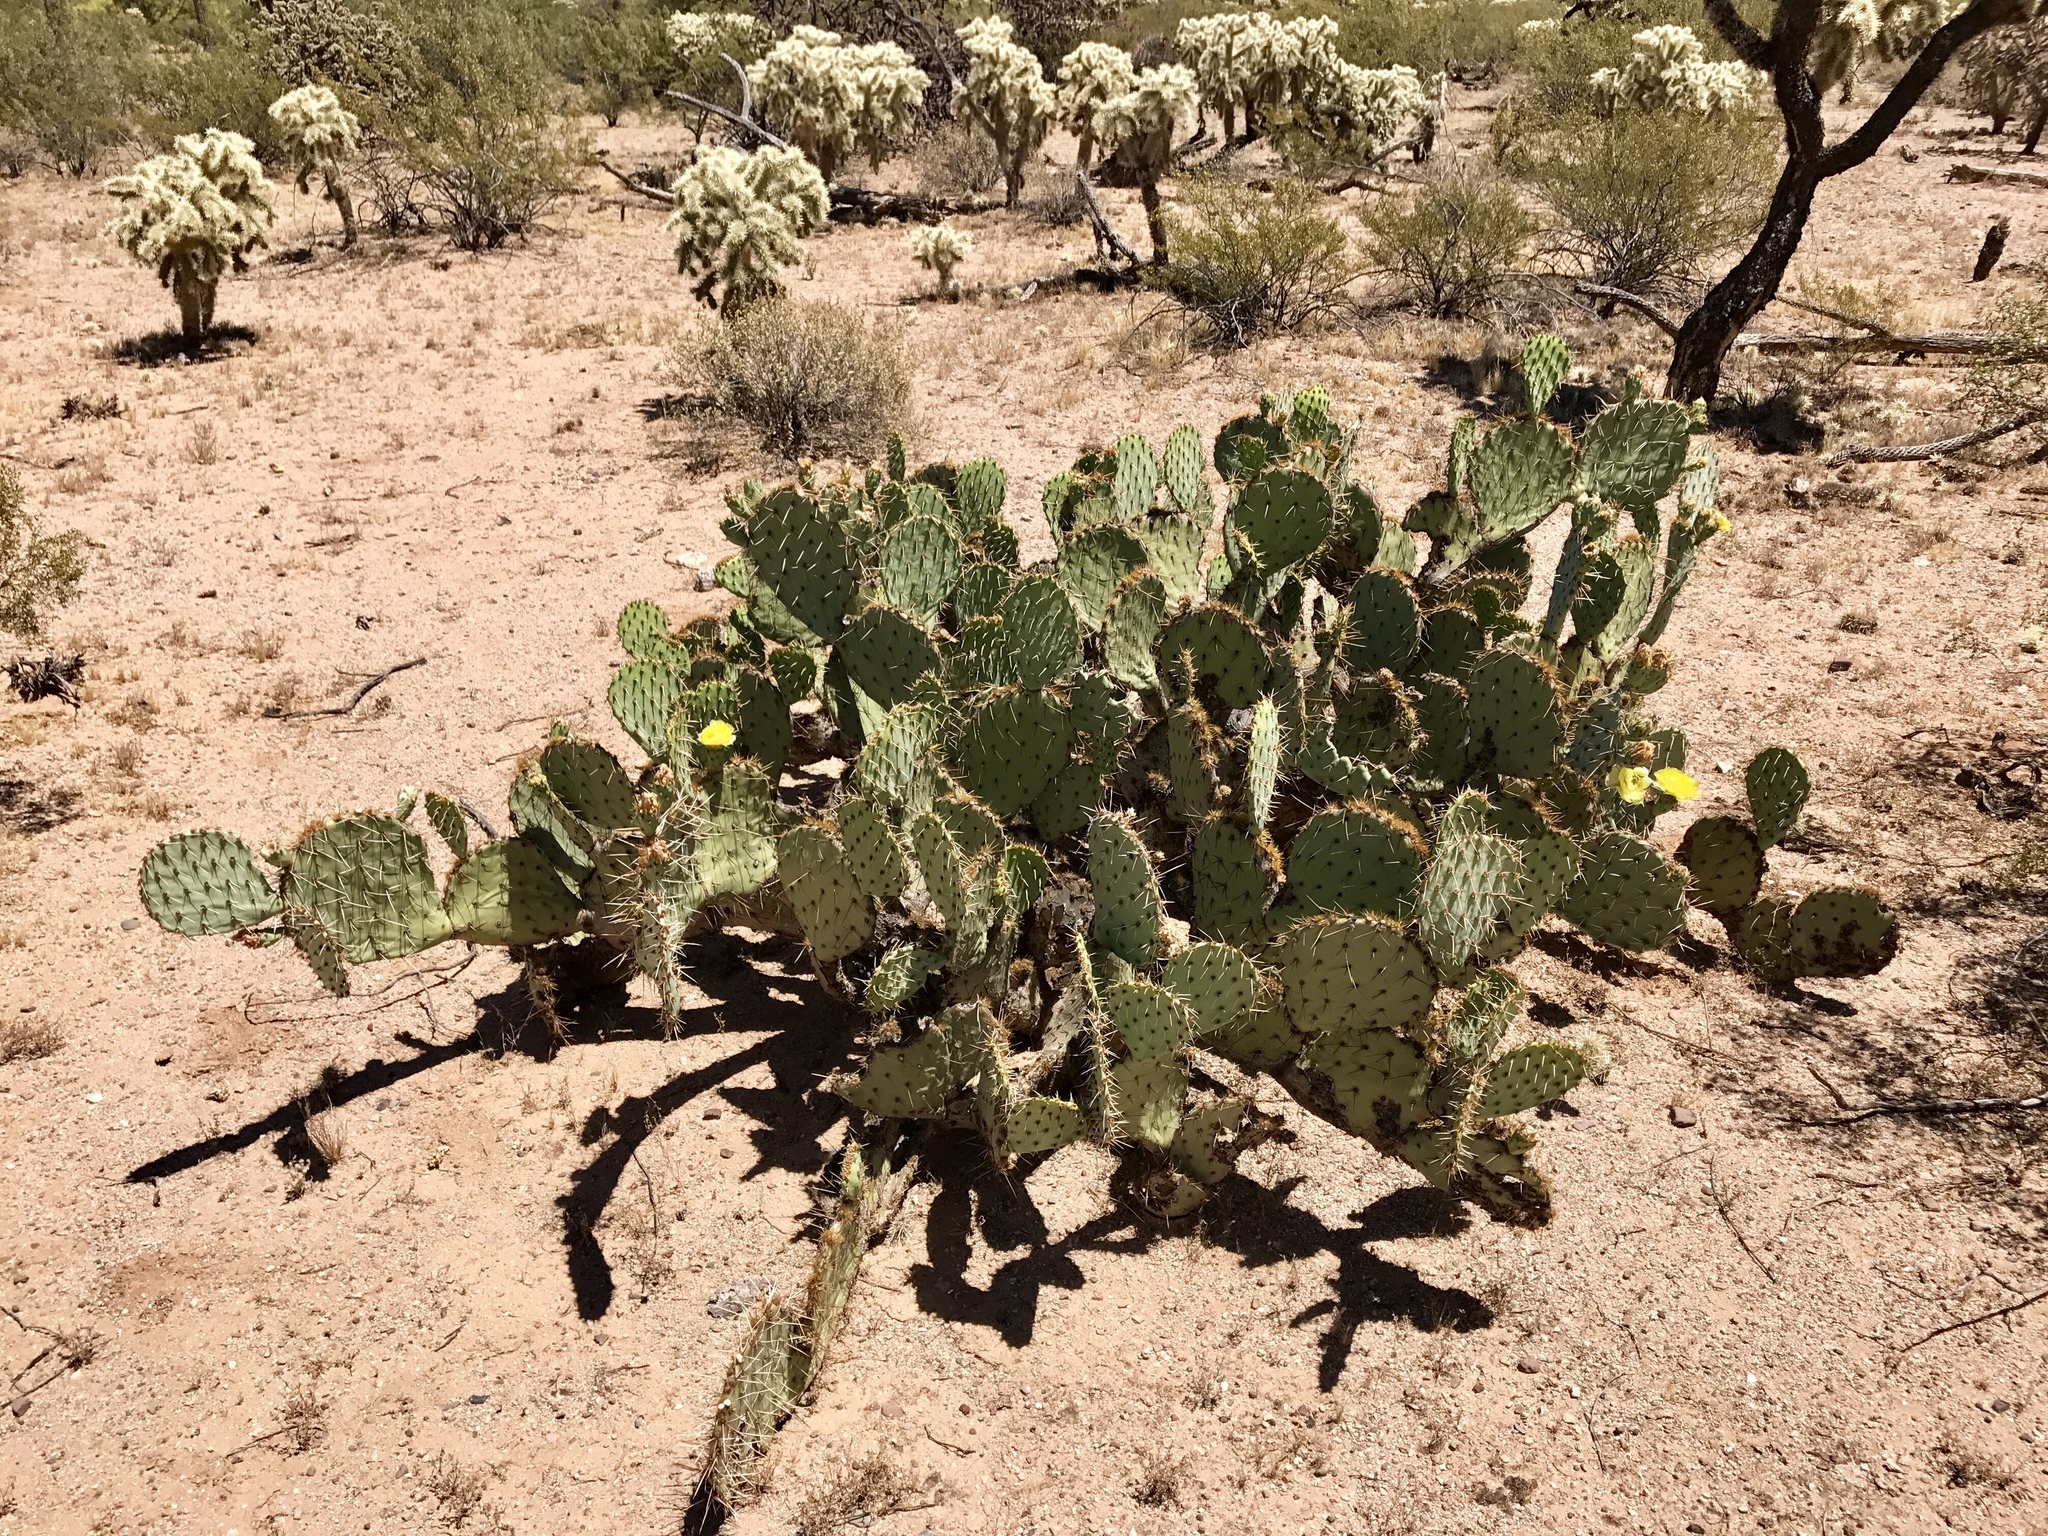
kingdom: Plantae
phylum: Tracheophyta
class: Magnoliopsida
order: Caryophyllales
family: Cactaceae
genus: Opuntia
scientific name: Opuntia engelmannii
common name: Cactus-apple
